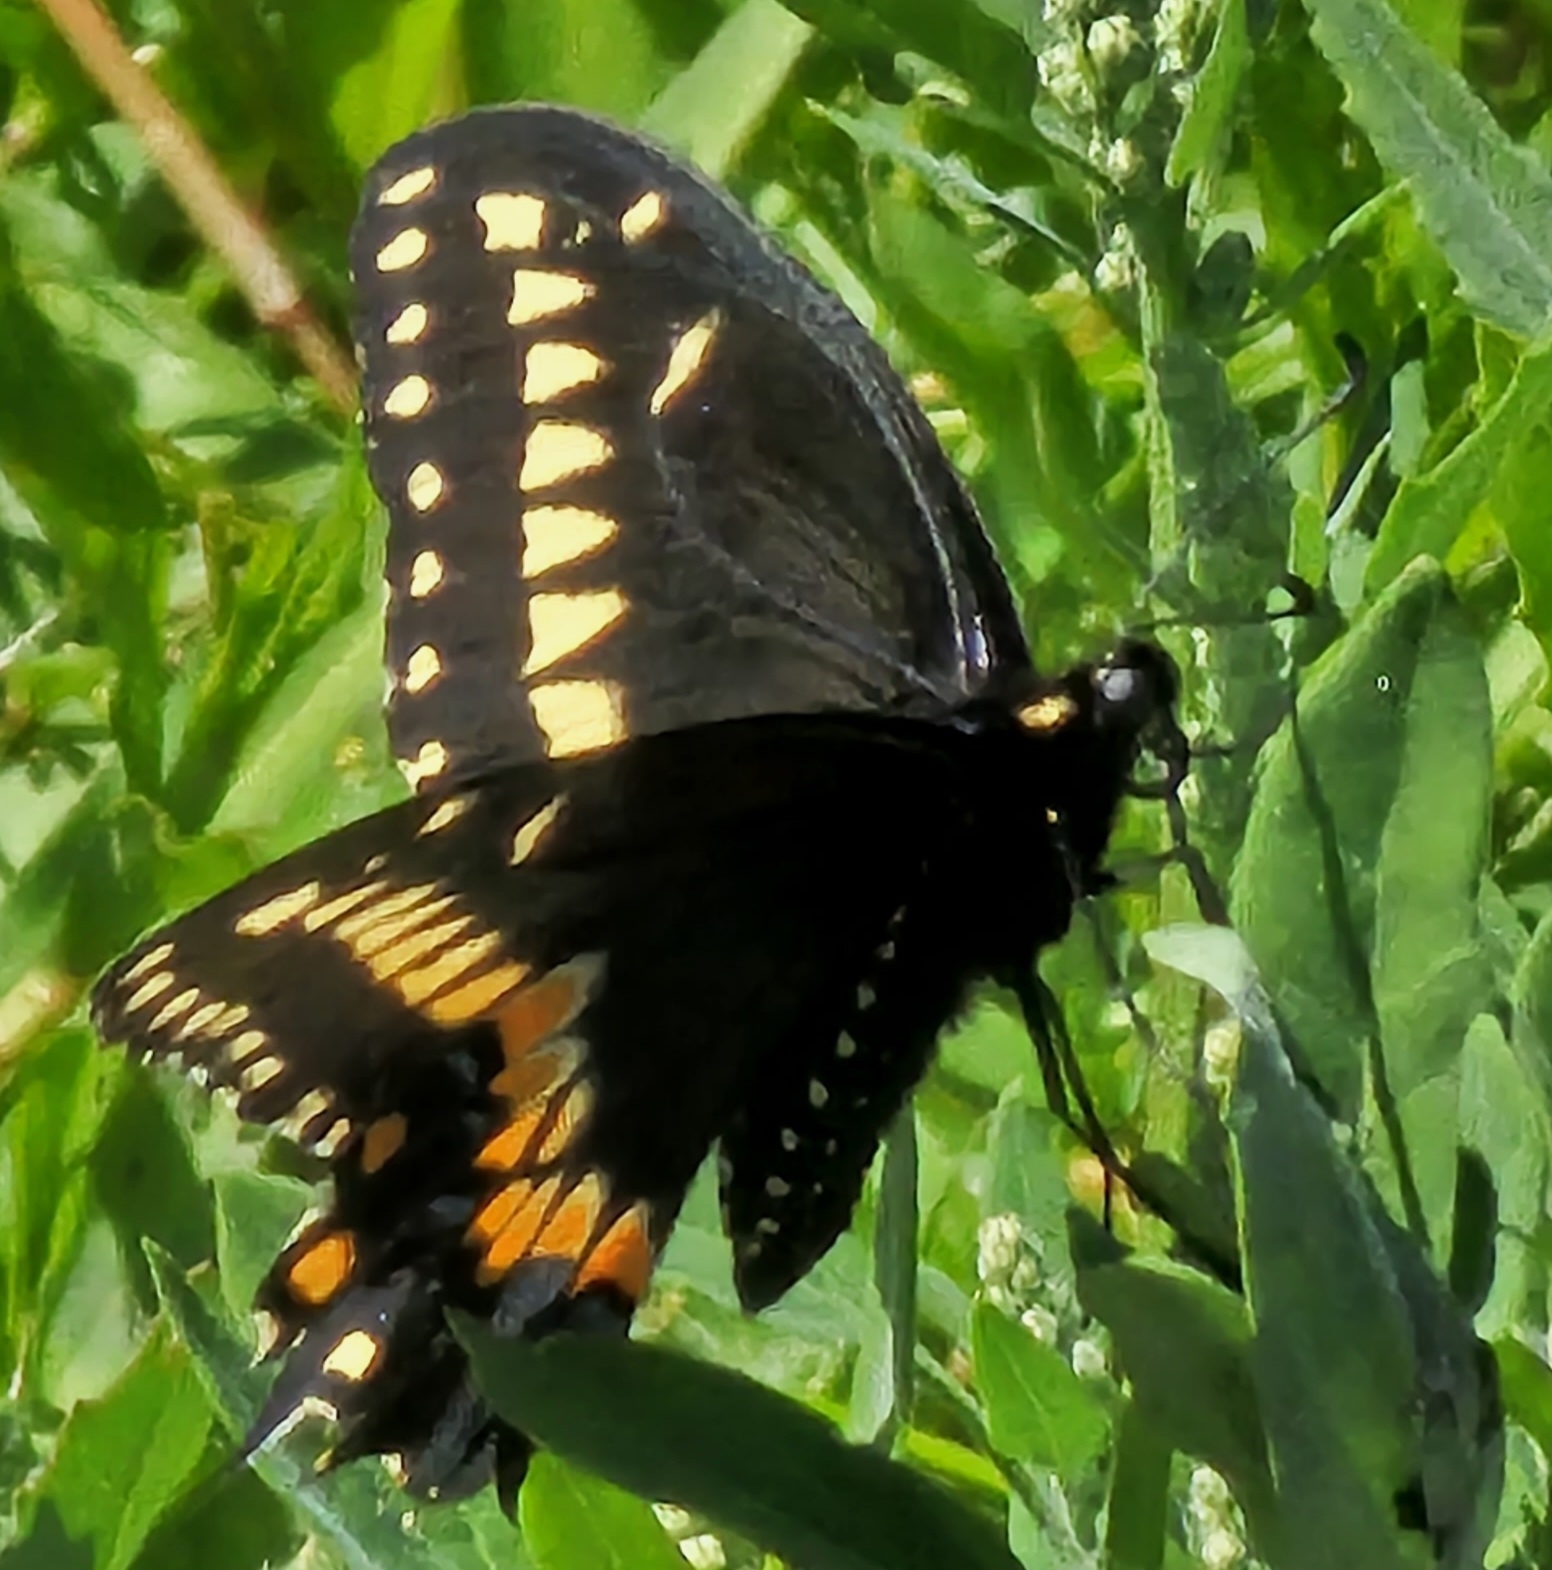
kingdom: Animalia
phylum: Arthropoda
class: Insecta
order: Lepidoptera
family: Papilionidae
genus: Papilio
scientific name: Papilio polyxenes
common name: Black swallowtail
